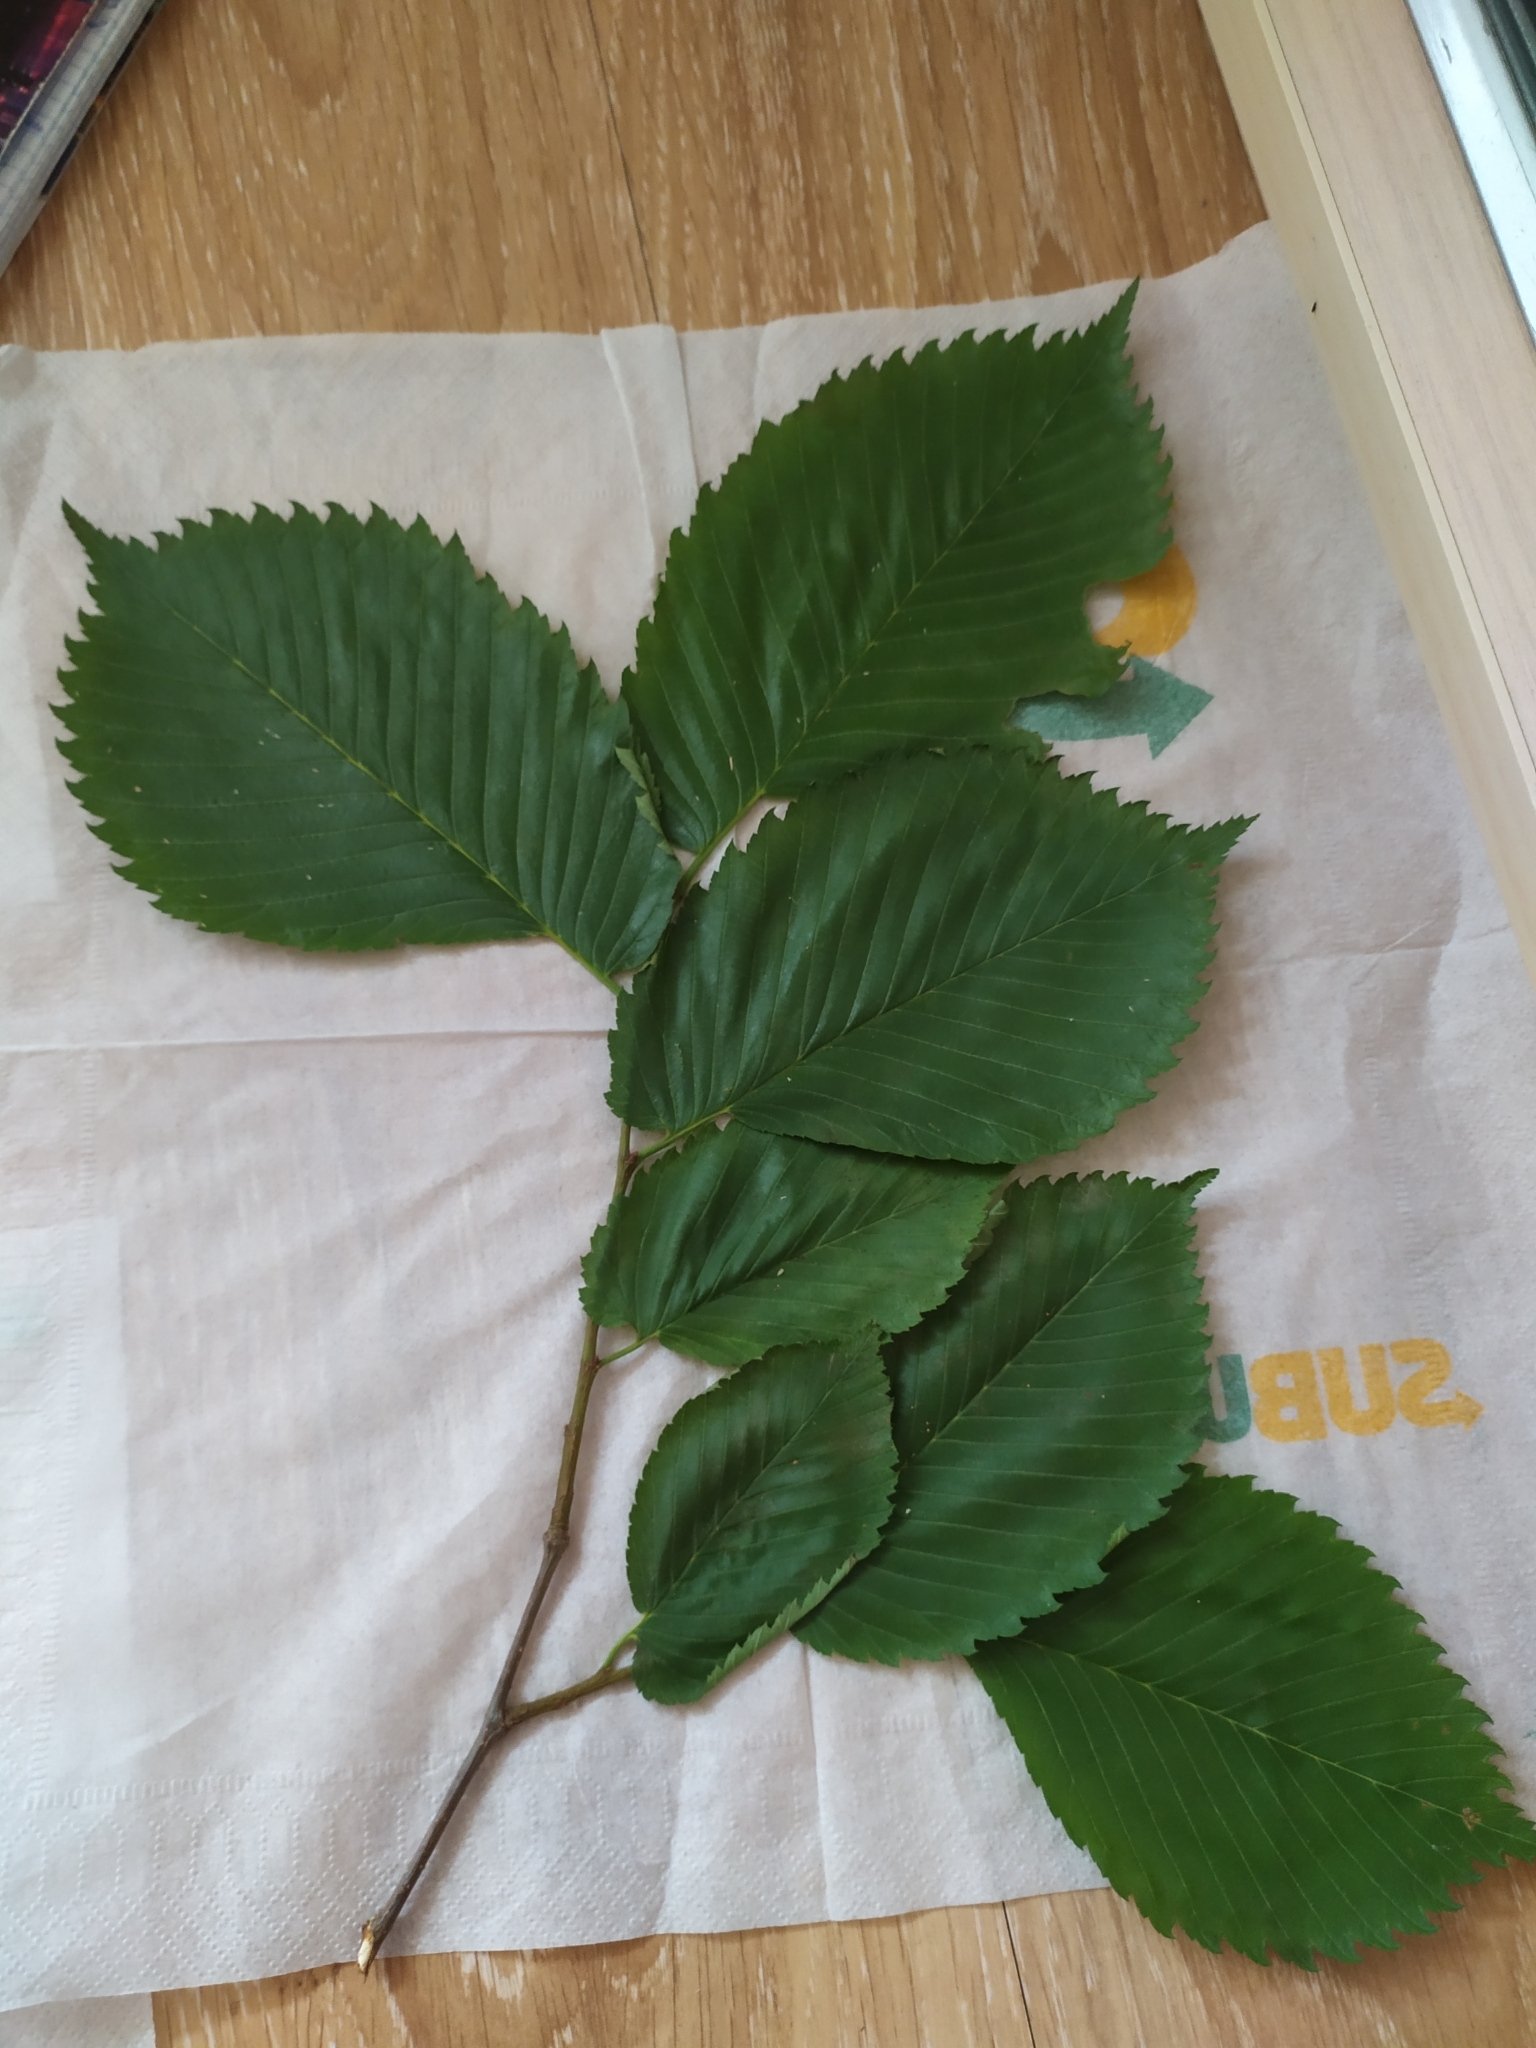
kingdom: Plantae
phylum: Tracheophyta
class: Magnoliopsida
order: Rosales
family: Ulmaceae
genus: Ulmus
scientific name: Ulmus laevis
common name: European white-elm
